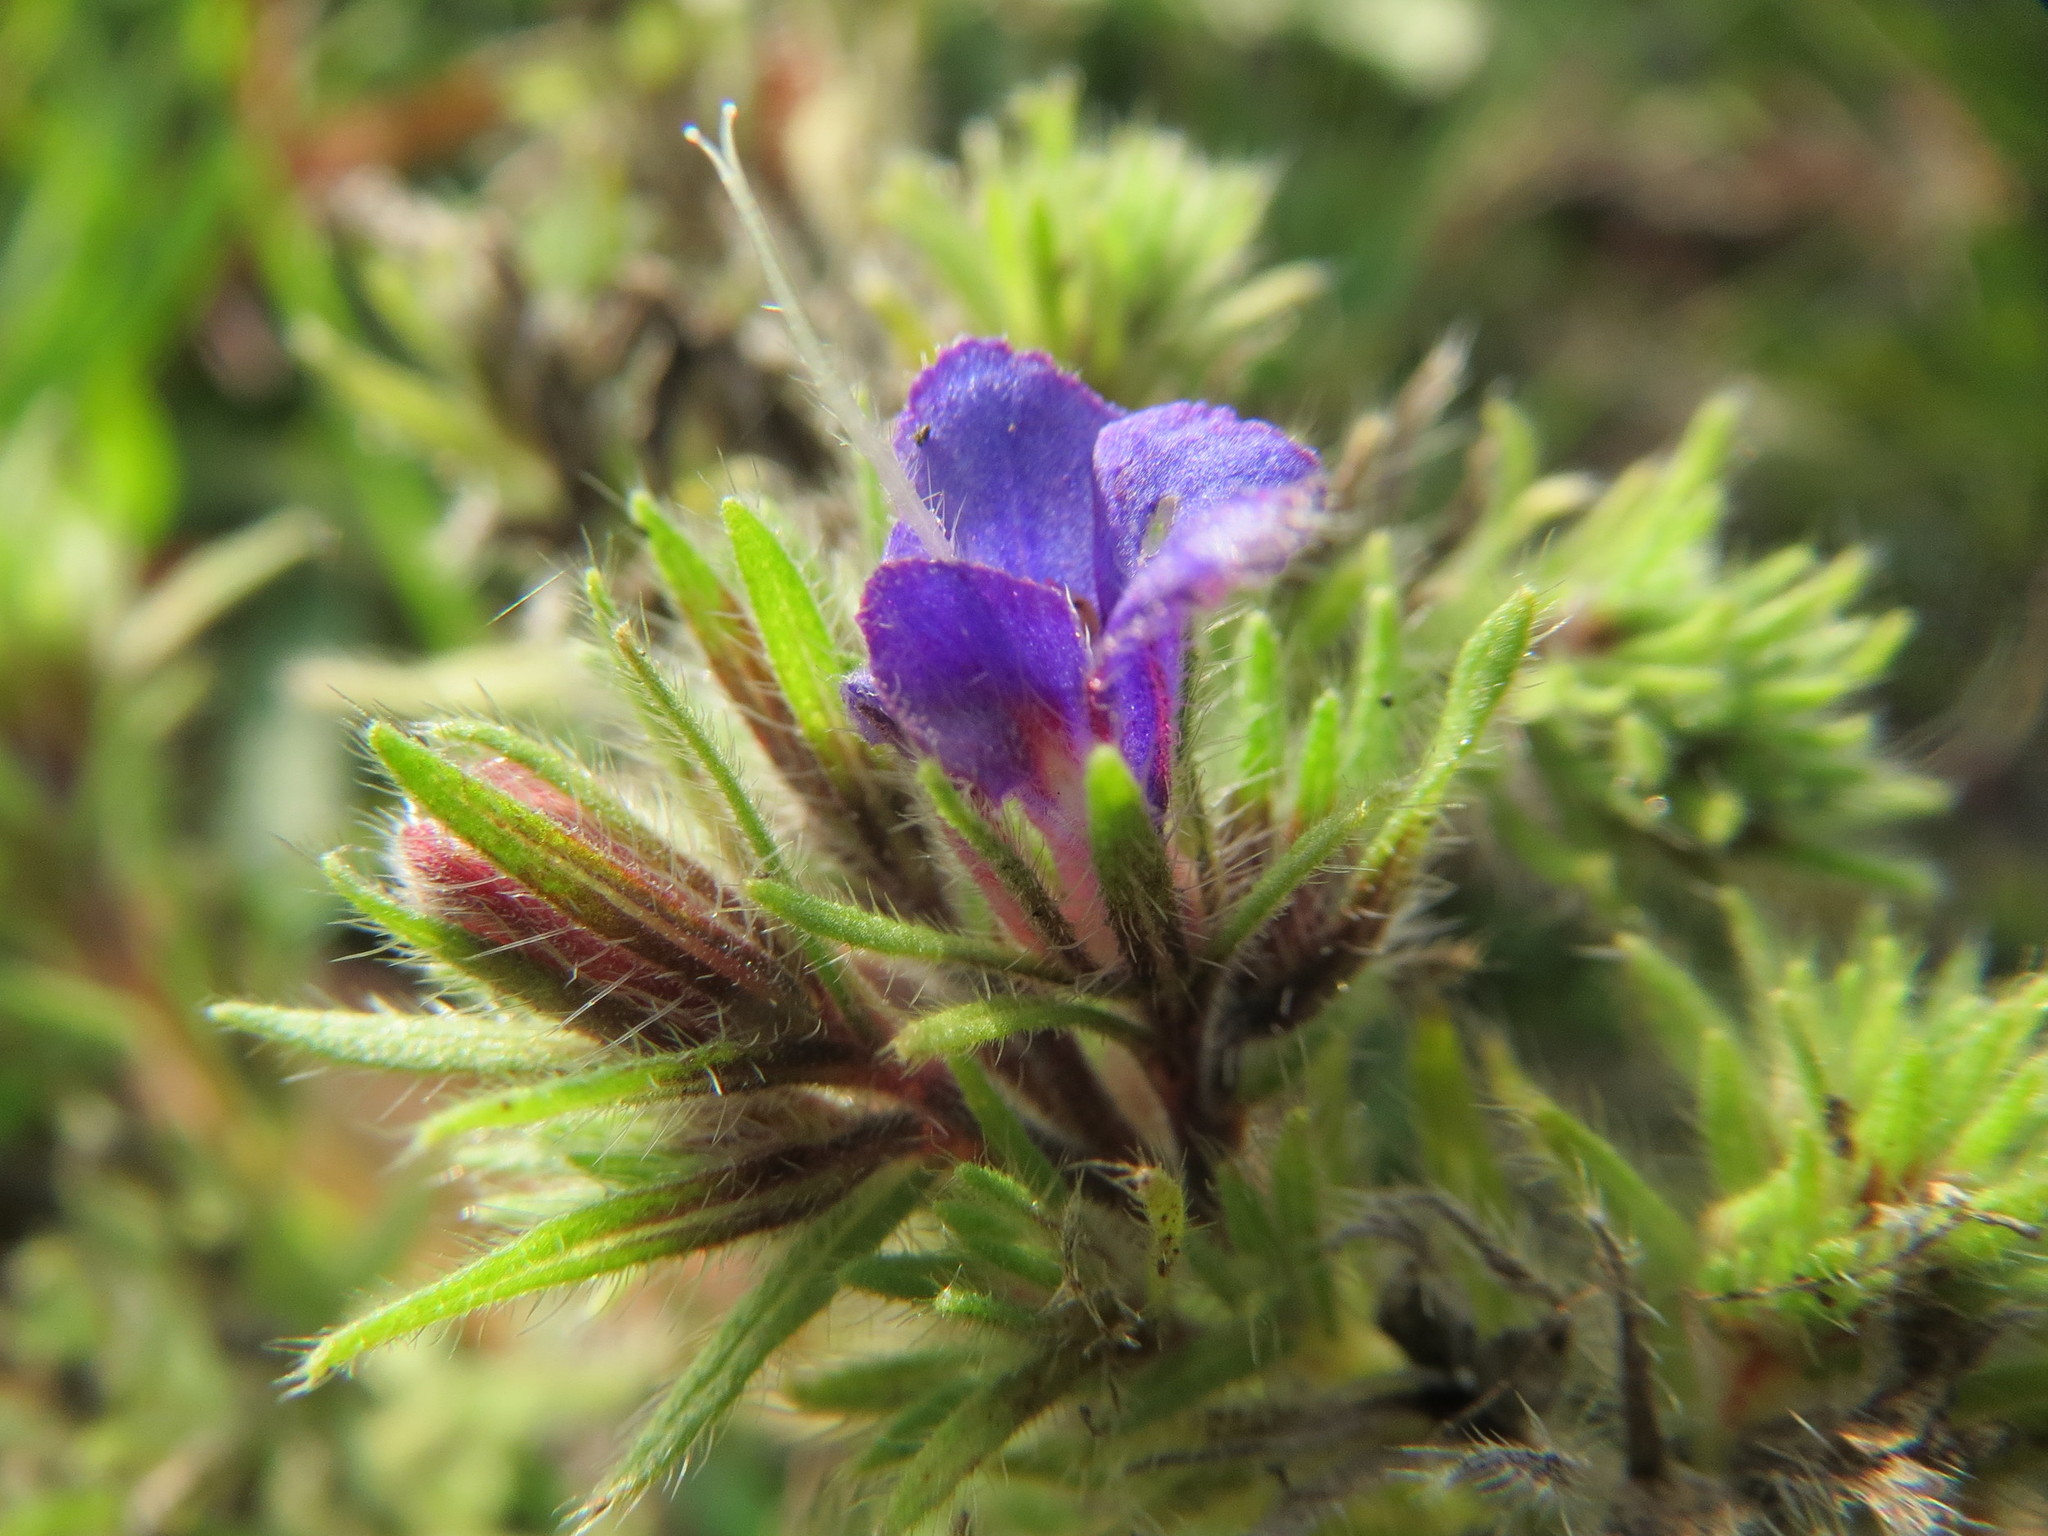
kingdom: Plantae
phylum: Tracheophyta
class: Magnoliopsida
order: Boraginales
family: Boraginaceae
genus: Echium
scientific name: Echium vulgare
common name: Common viper's bugloss
